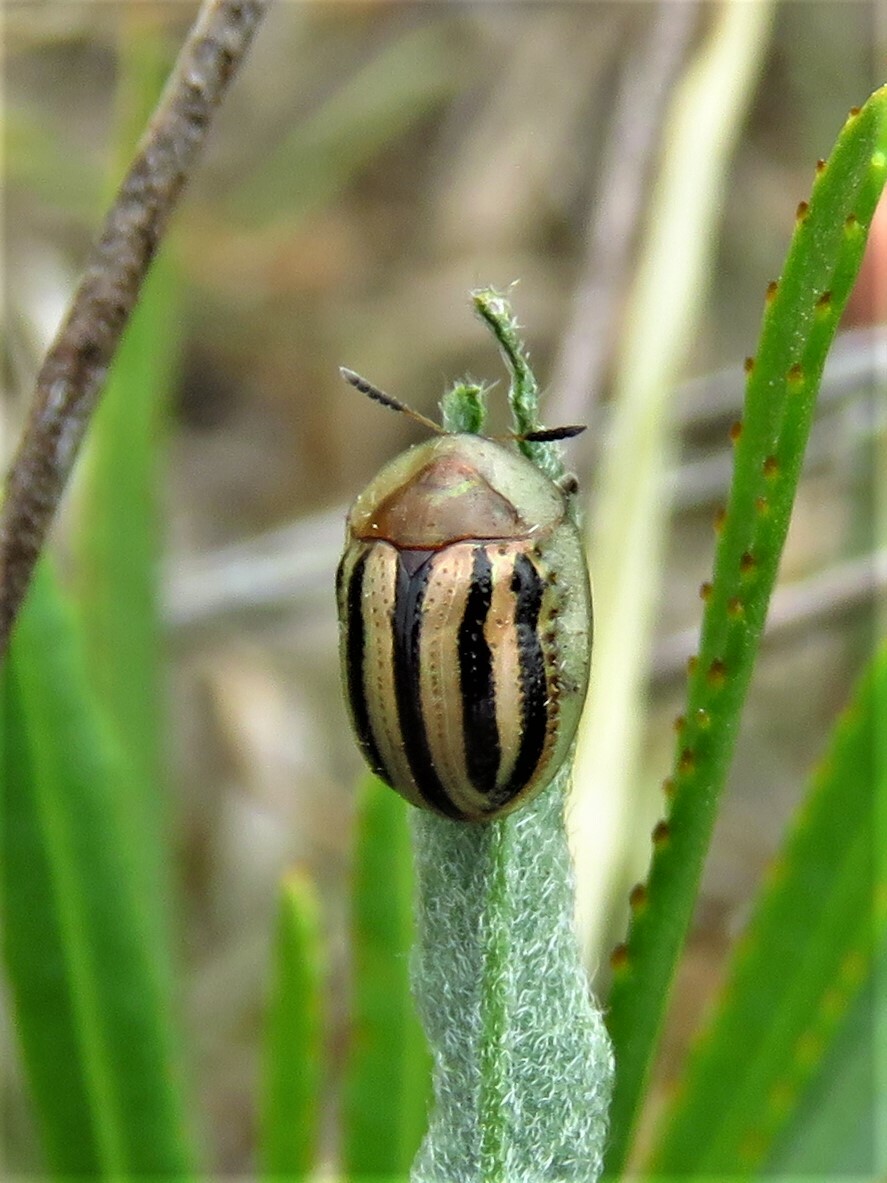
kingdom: Animalia
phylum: Arthropoda
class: Insecta
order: Coleoptera
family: Chrysomelidae
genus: Agroiconota
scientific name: Agroiconota bivittata
